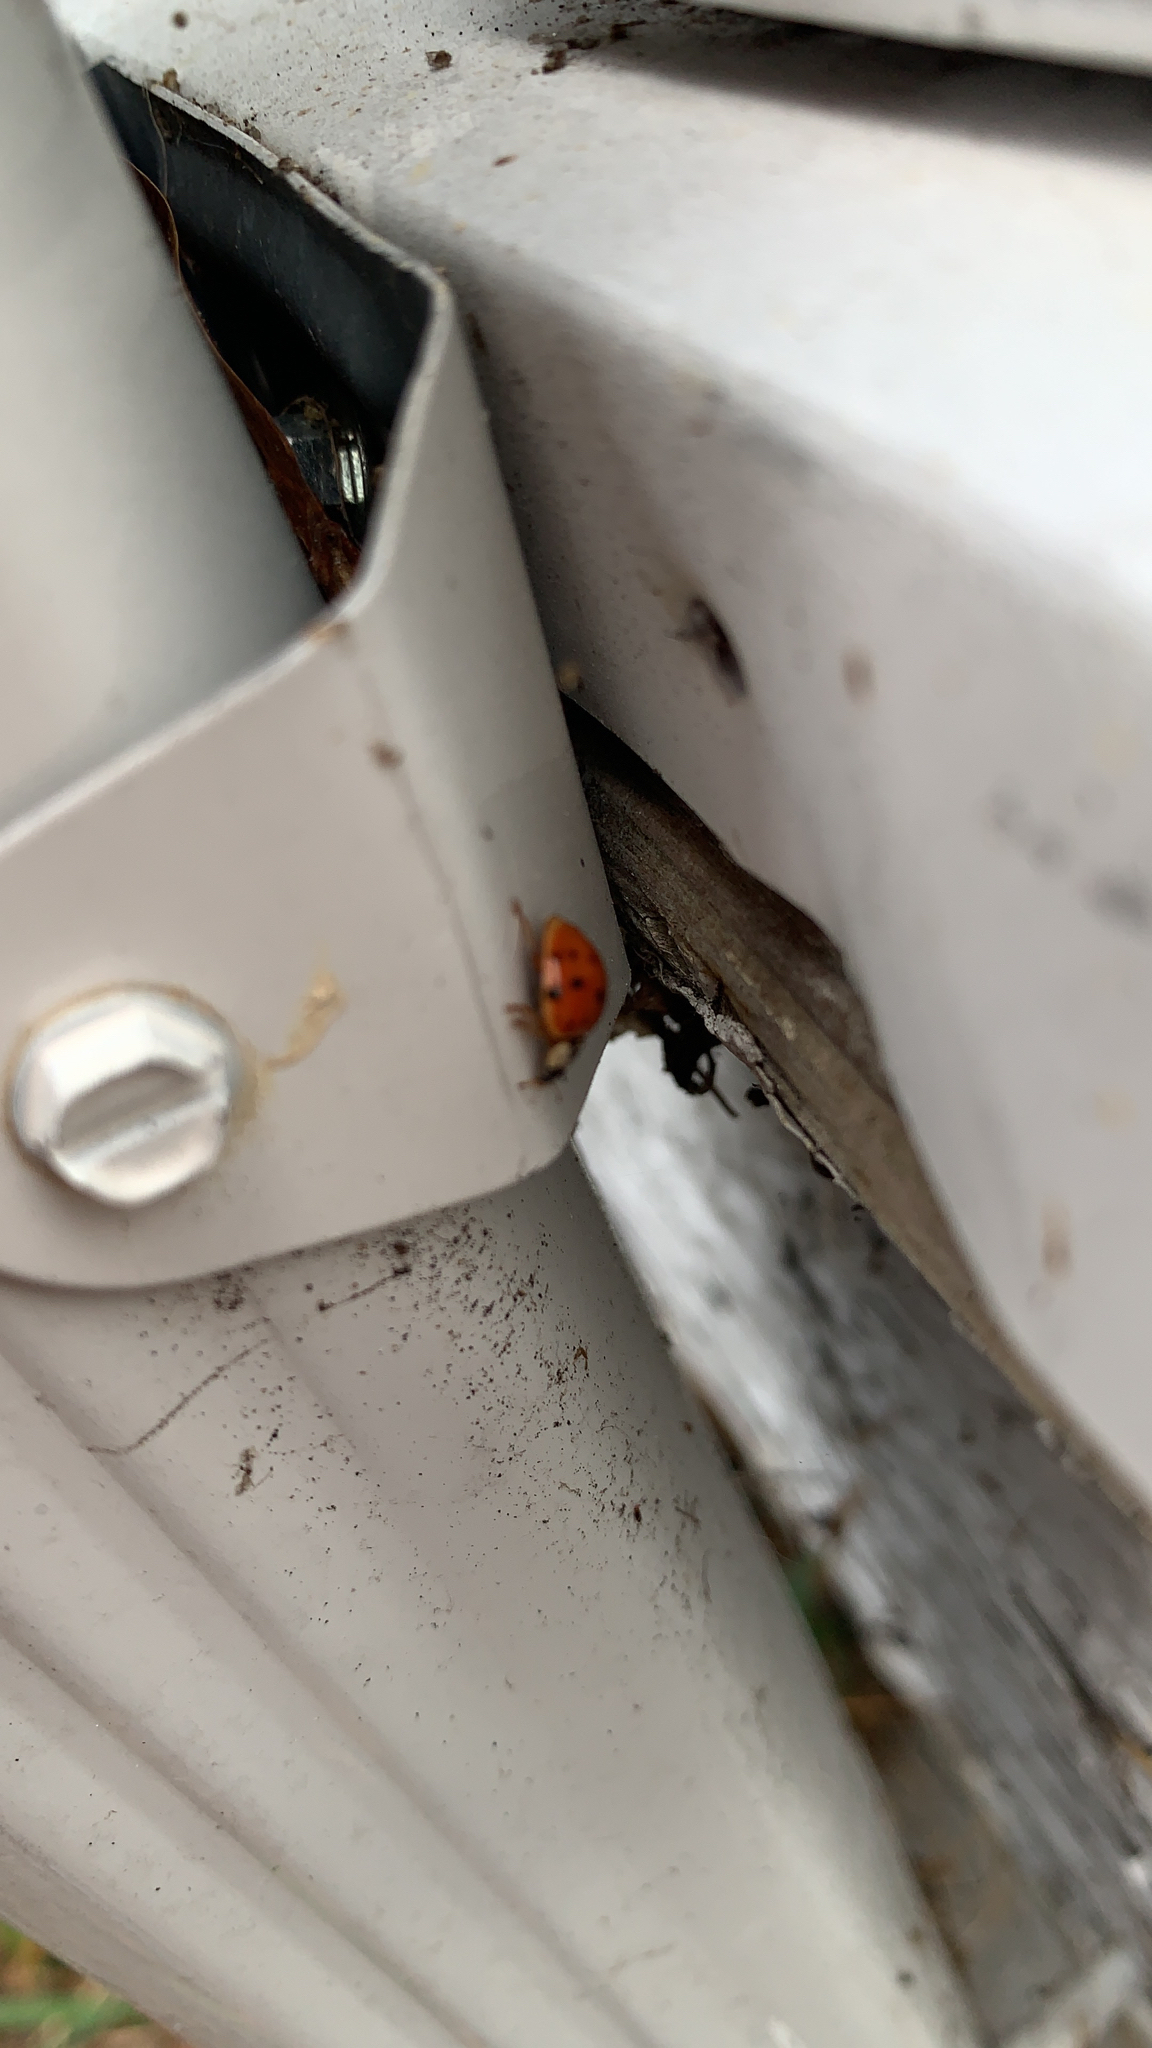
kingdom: Animalia
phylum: Arthropoda
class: Insecta
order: Coleoptera
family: Coccinellidae
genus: Harmonia
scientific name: Harmonia axyridis
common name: Harlequin ladybird
